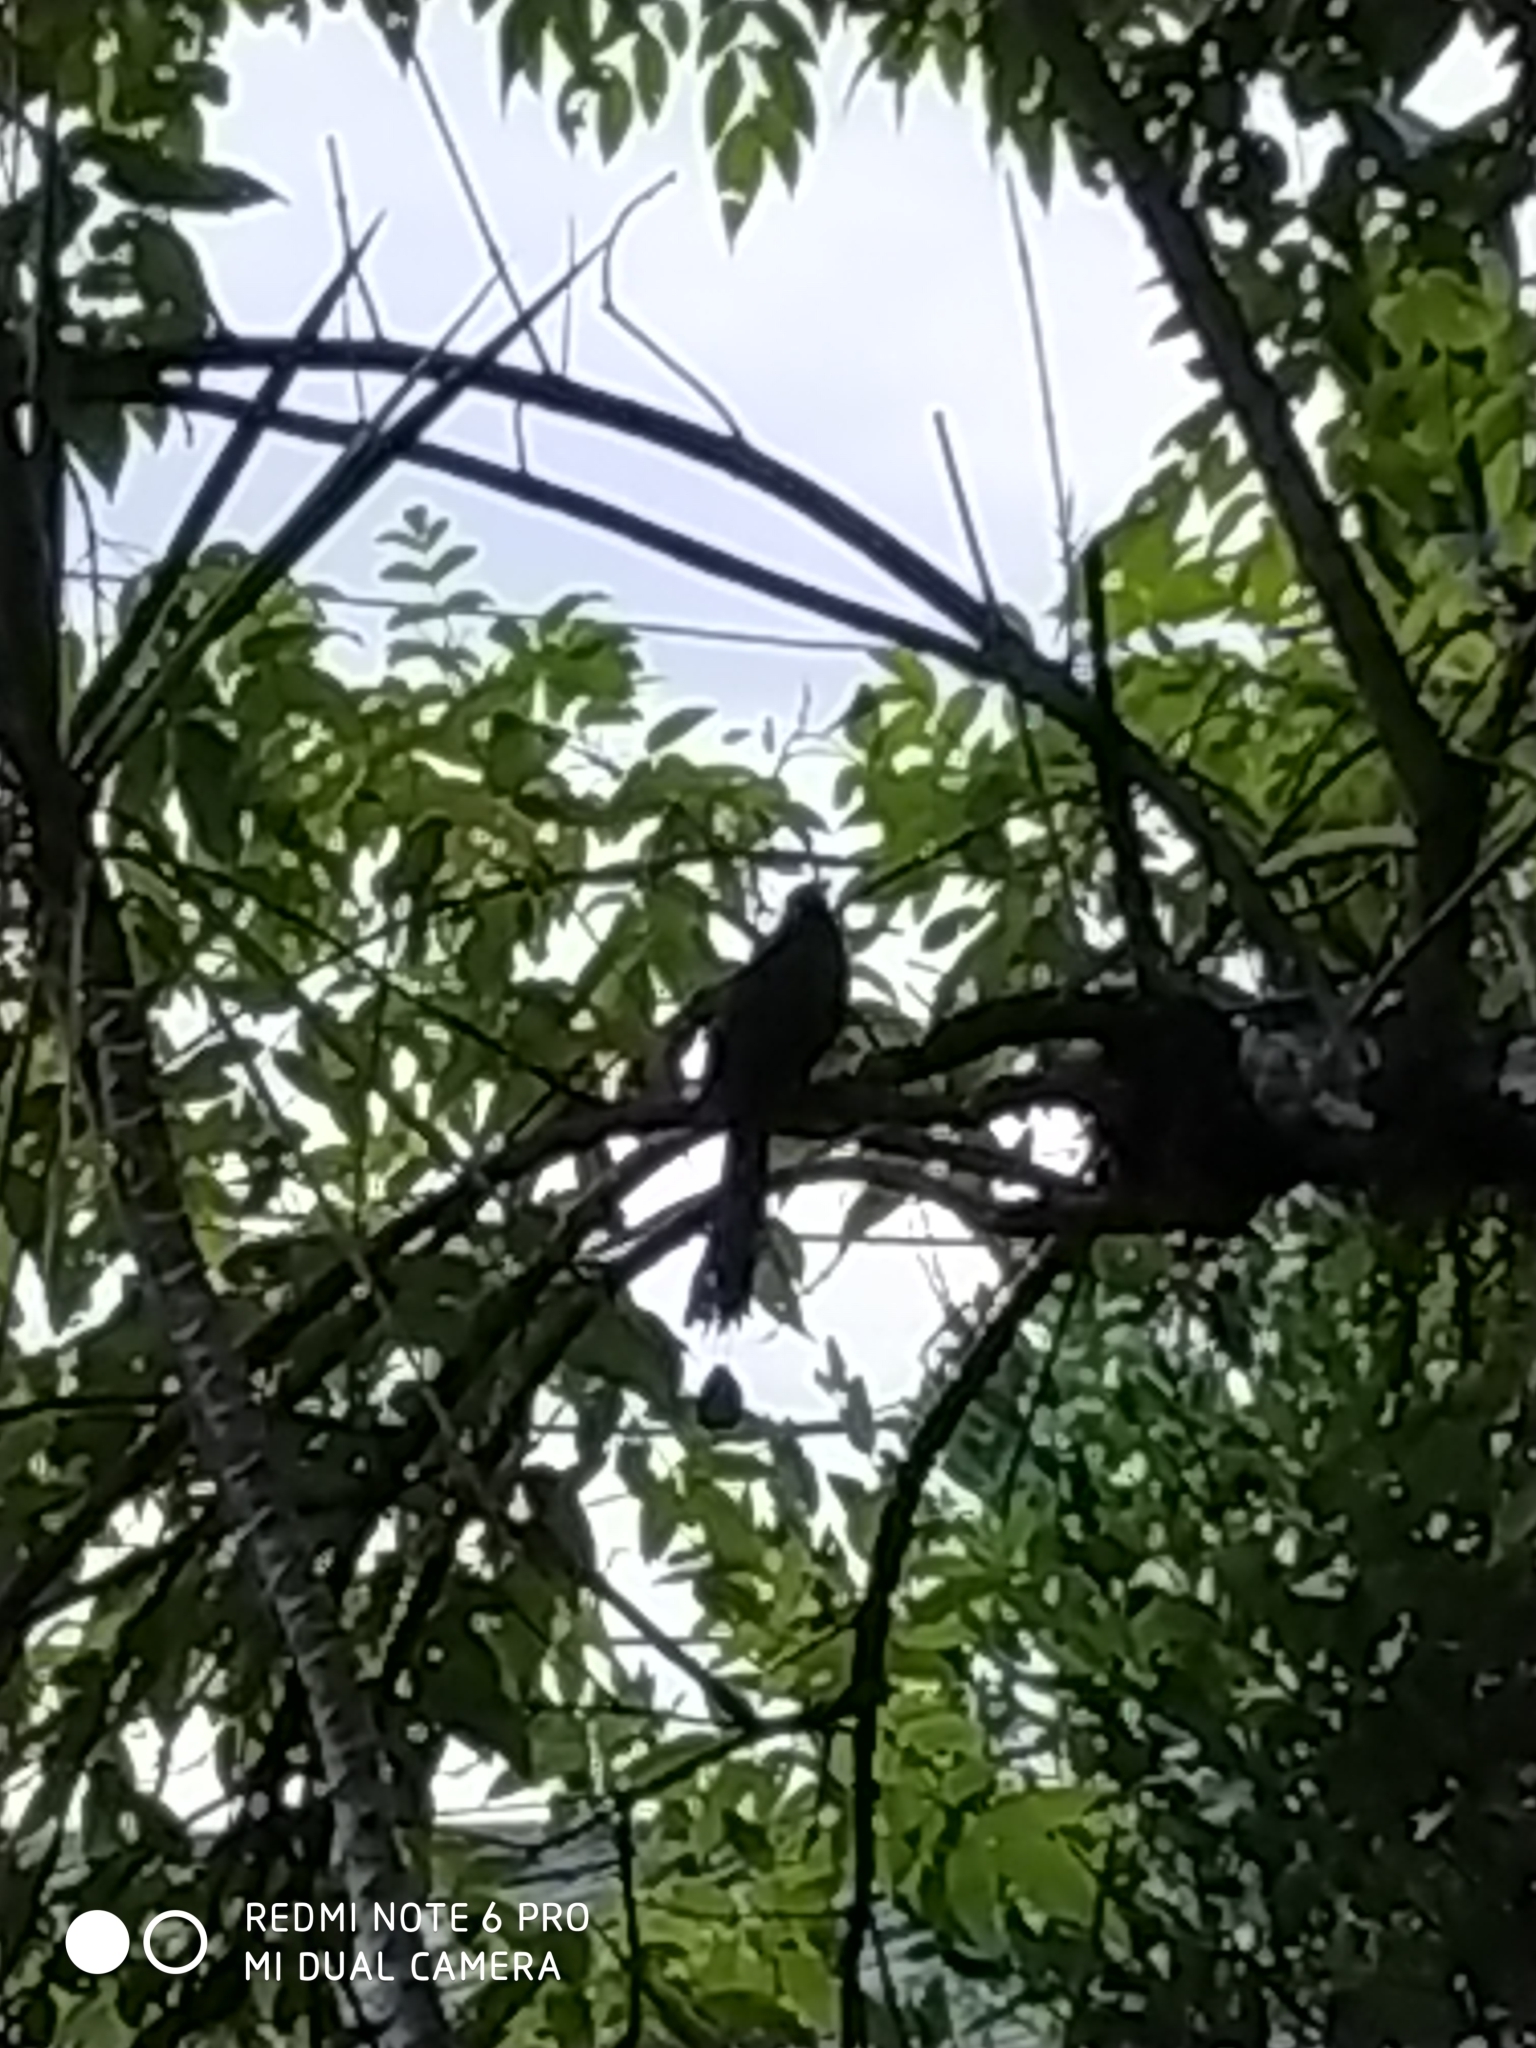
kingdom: Animalia
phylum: Chordata
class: Aves
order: Coraciiformes
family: Momotidae
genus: Momotus
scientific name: Momotus aequatorialis
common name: Andean motmot
